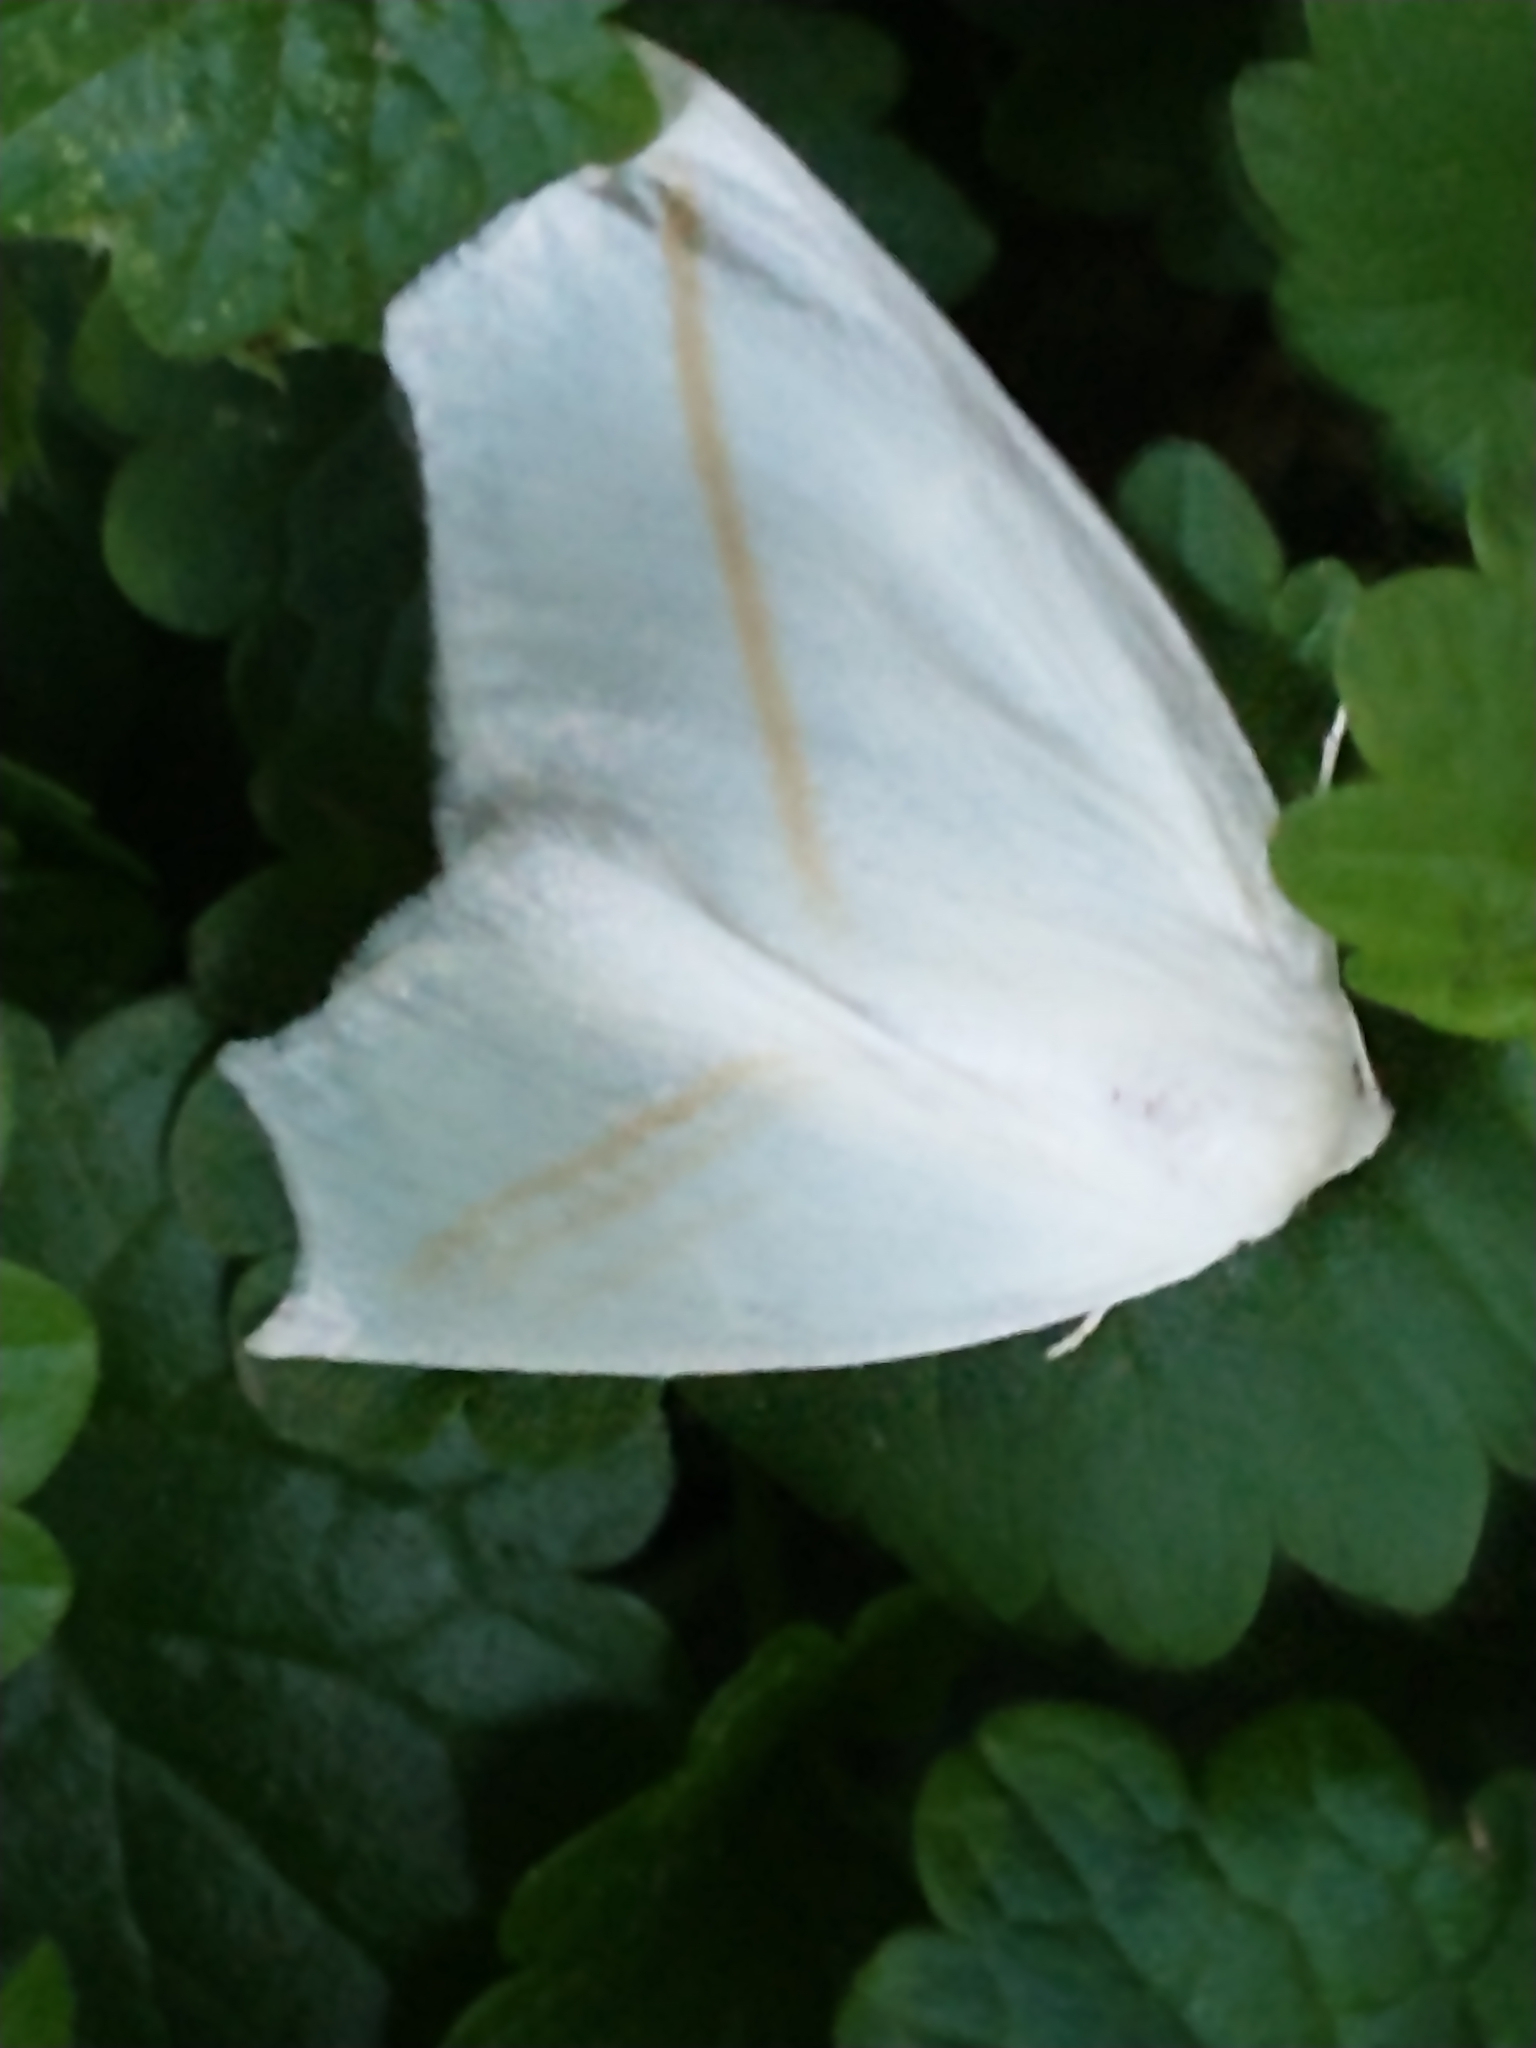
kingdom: Animalia
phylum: Arthropoda
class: Insecta
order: Lepidoptera
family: Geometridae
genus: Tetracis
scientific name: Tetracis cachexiata
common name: White slant-line
